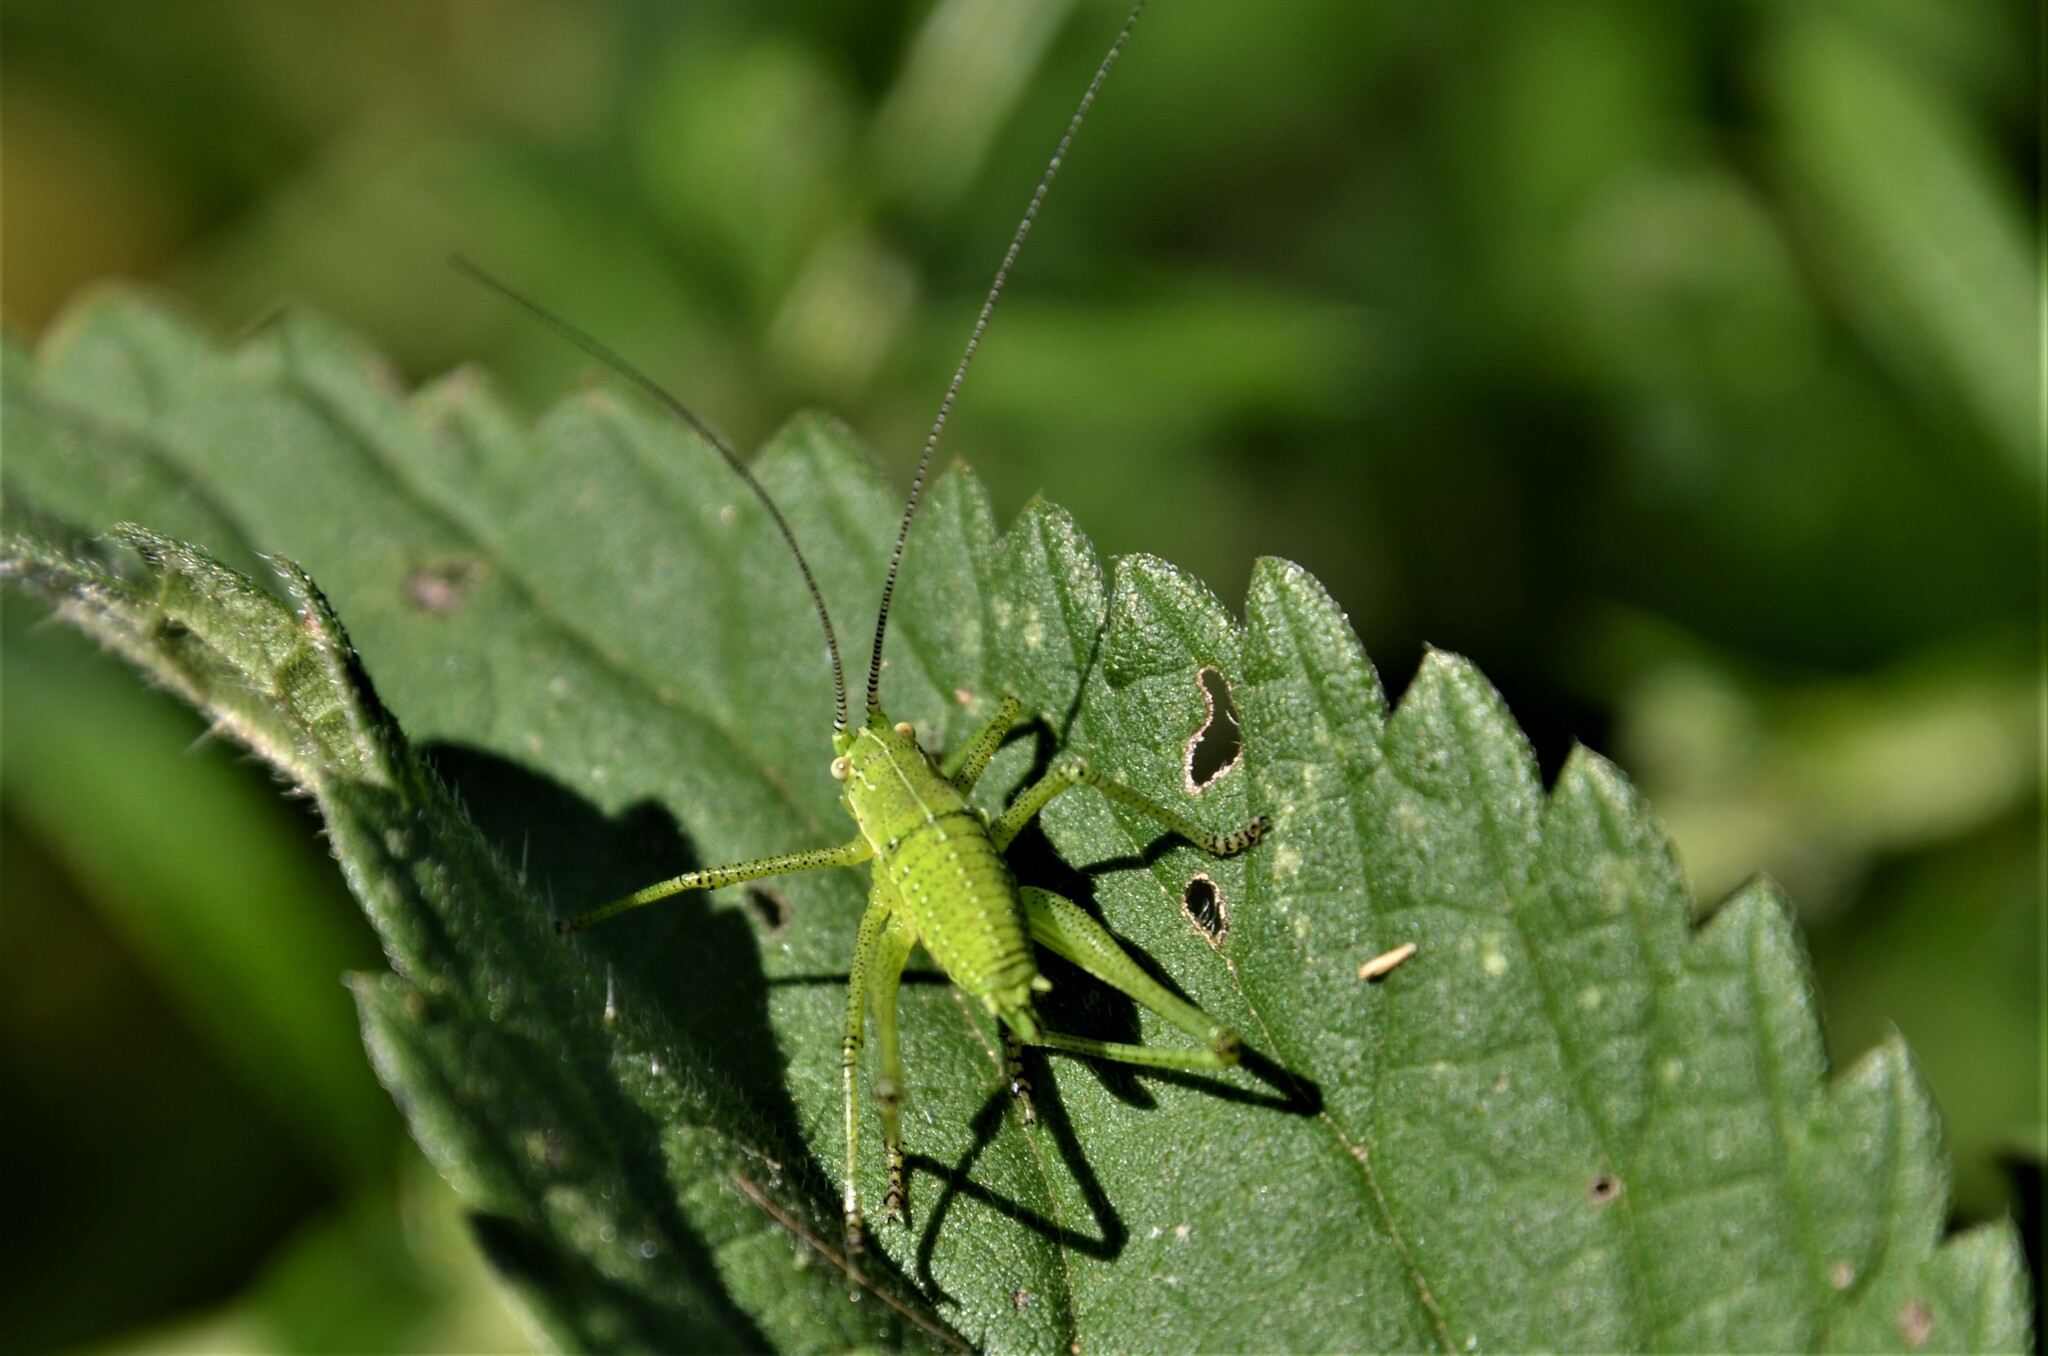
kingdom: Animalia
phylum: Arthropoda
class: Insecta
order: Orthoptera
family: Tettigoniidae
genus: Leptophyes
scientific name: Leptophyes boscii
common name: Balkan speckled bush-cricket
